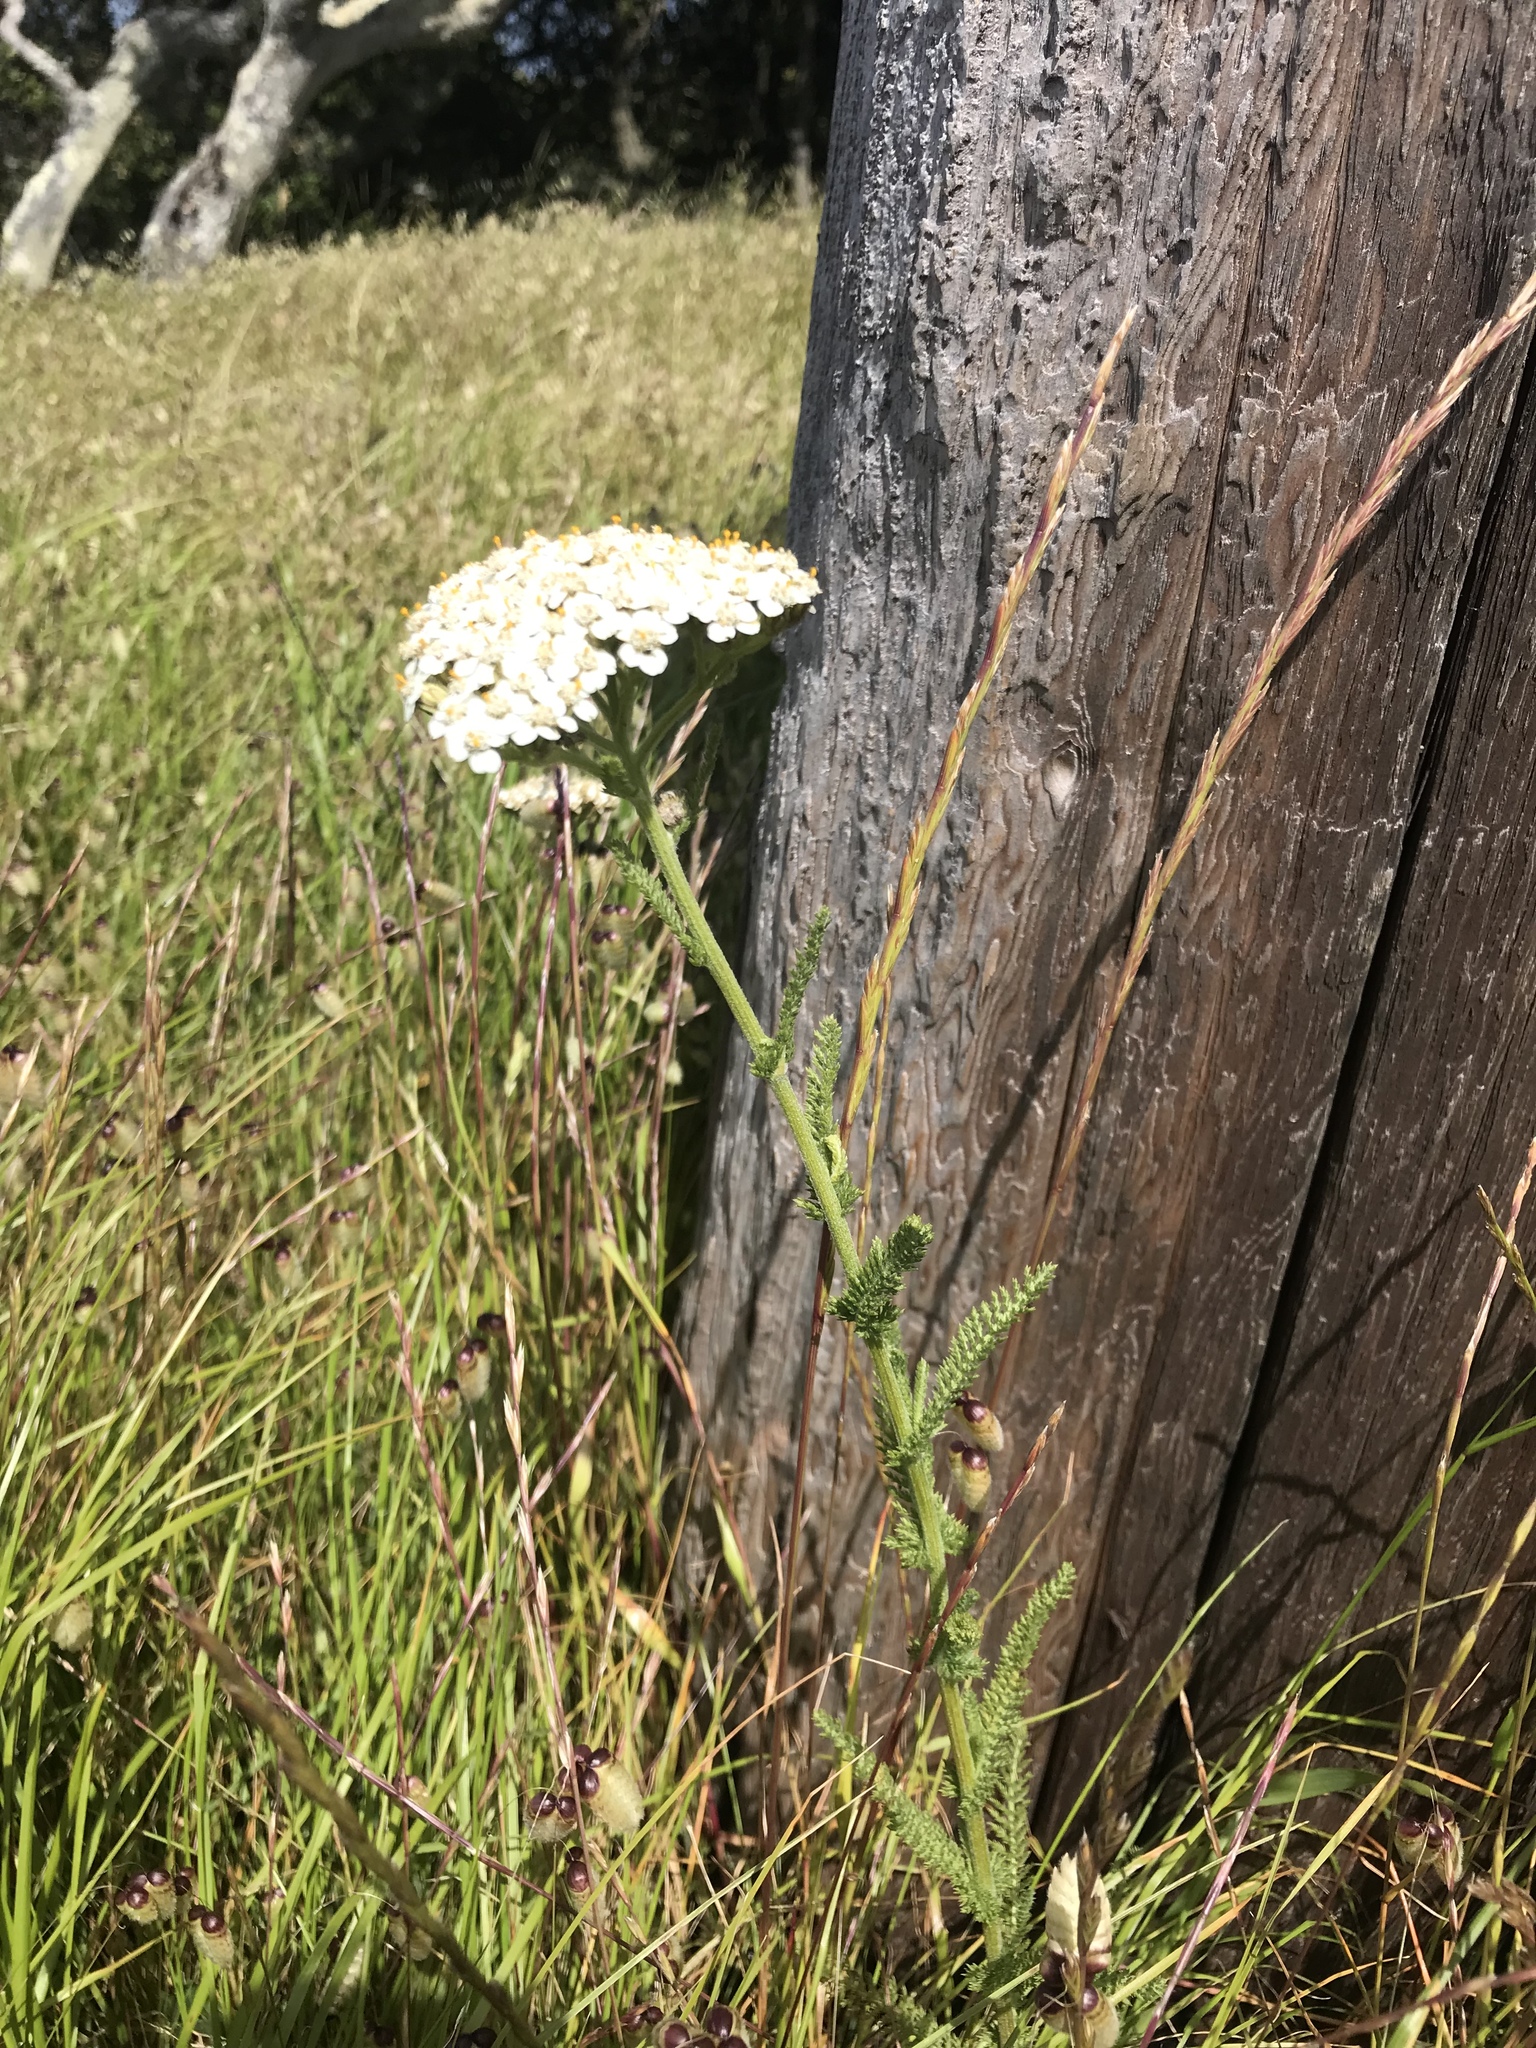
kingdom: Plantae
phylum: Tracheophyta
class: Magnoliopsida
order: Asterales
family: Asteraceae
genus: Achillea
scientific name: Achillea millefolium
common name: Yarrow
